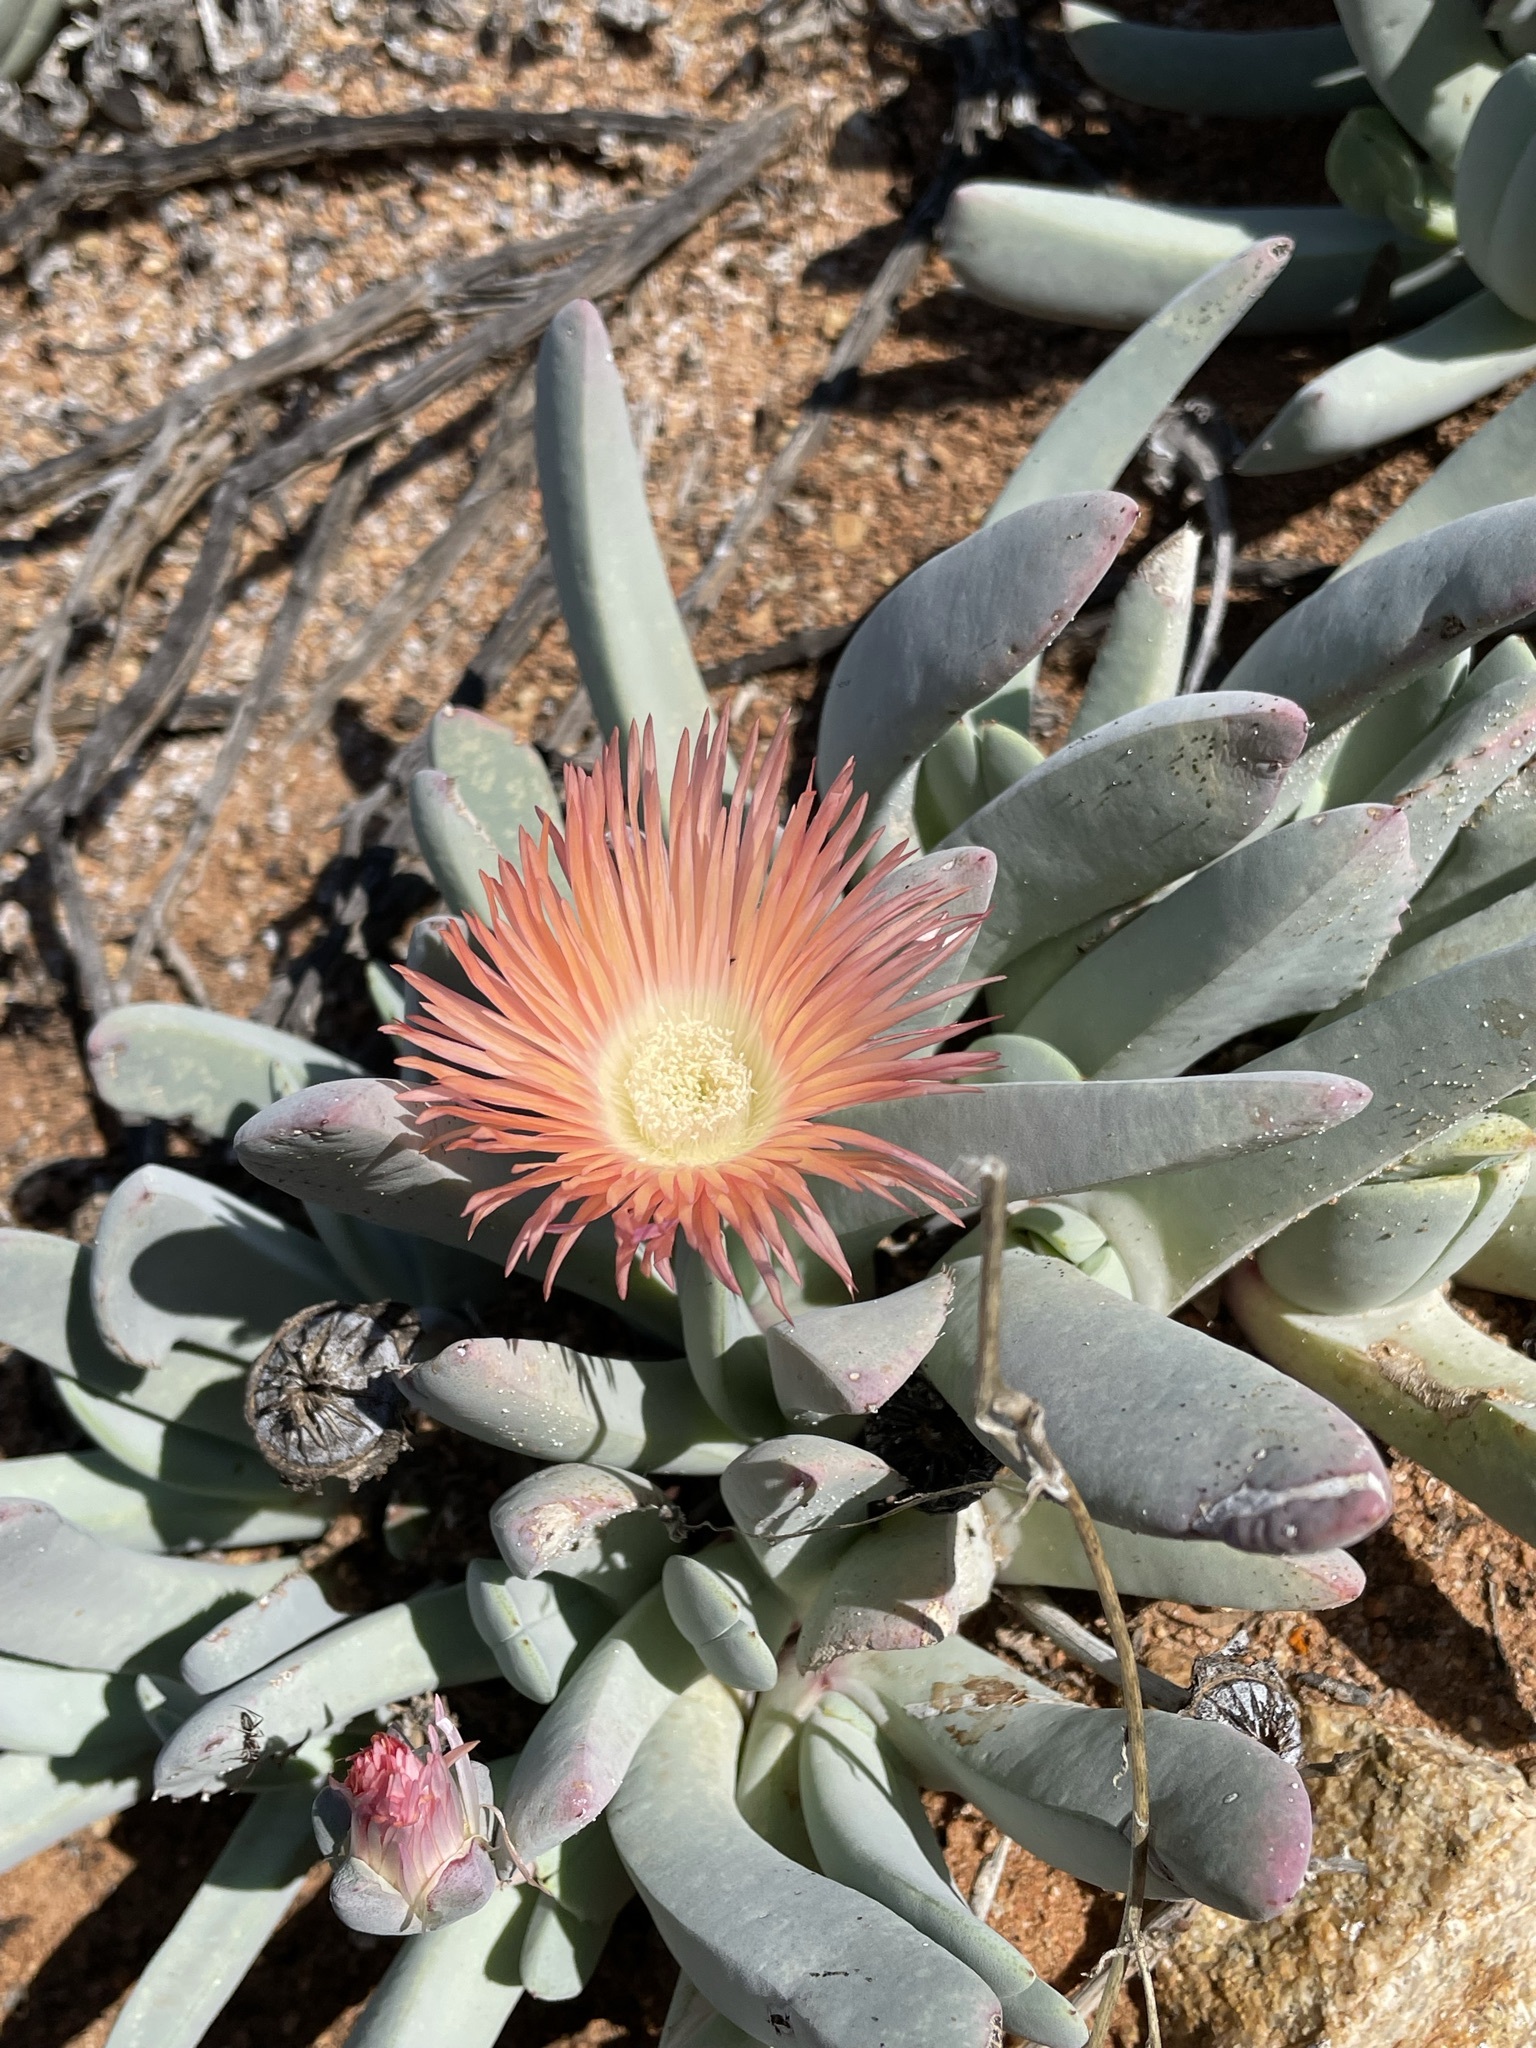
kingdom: Plantae
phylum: Tracheophyta
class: Magnoliopsida
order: Caryophyllales
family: Aizoaceae
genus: Cheiridopsis
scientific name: Cheiridopsis denticulata
